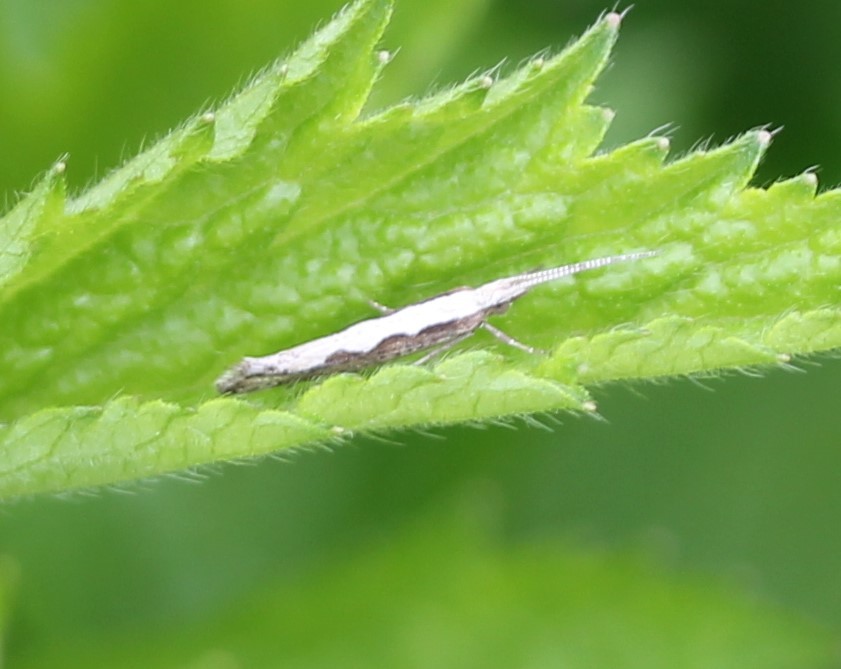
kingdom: Animalia
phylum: Arthropoda
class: Insecta
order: Lepidoptera
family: Plutellidae
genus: Plutella
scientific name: Plutella xylostella
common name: Diamond-back moth
